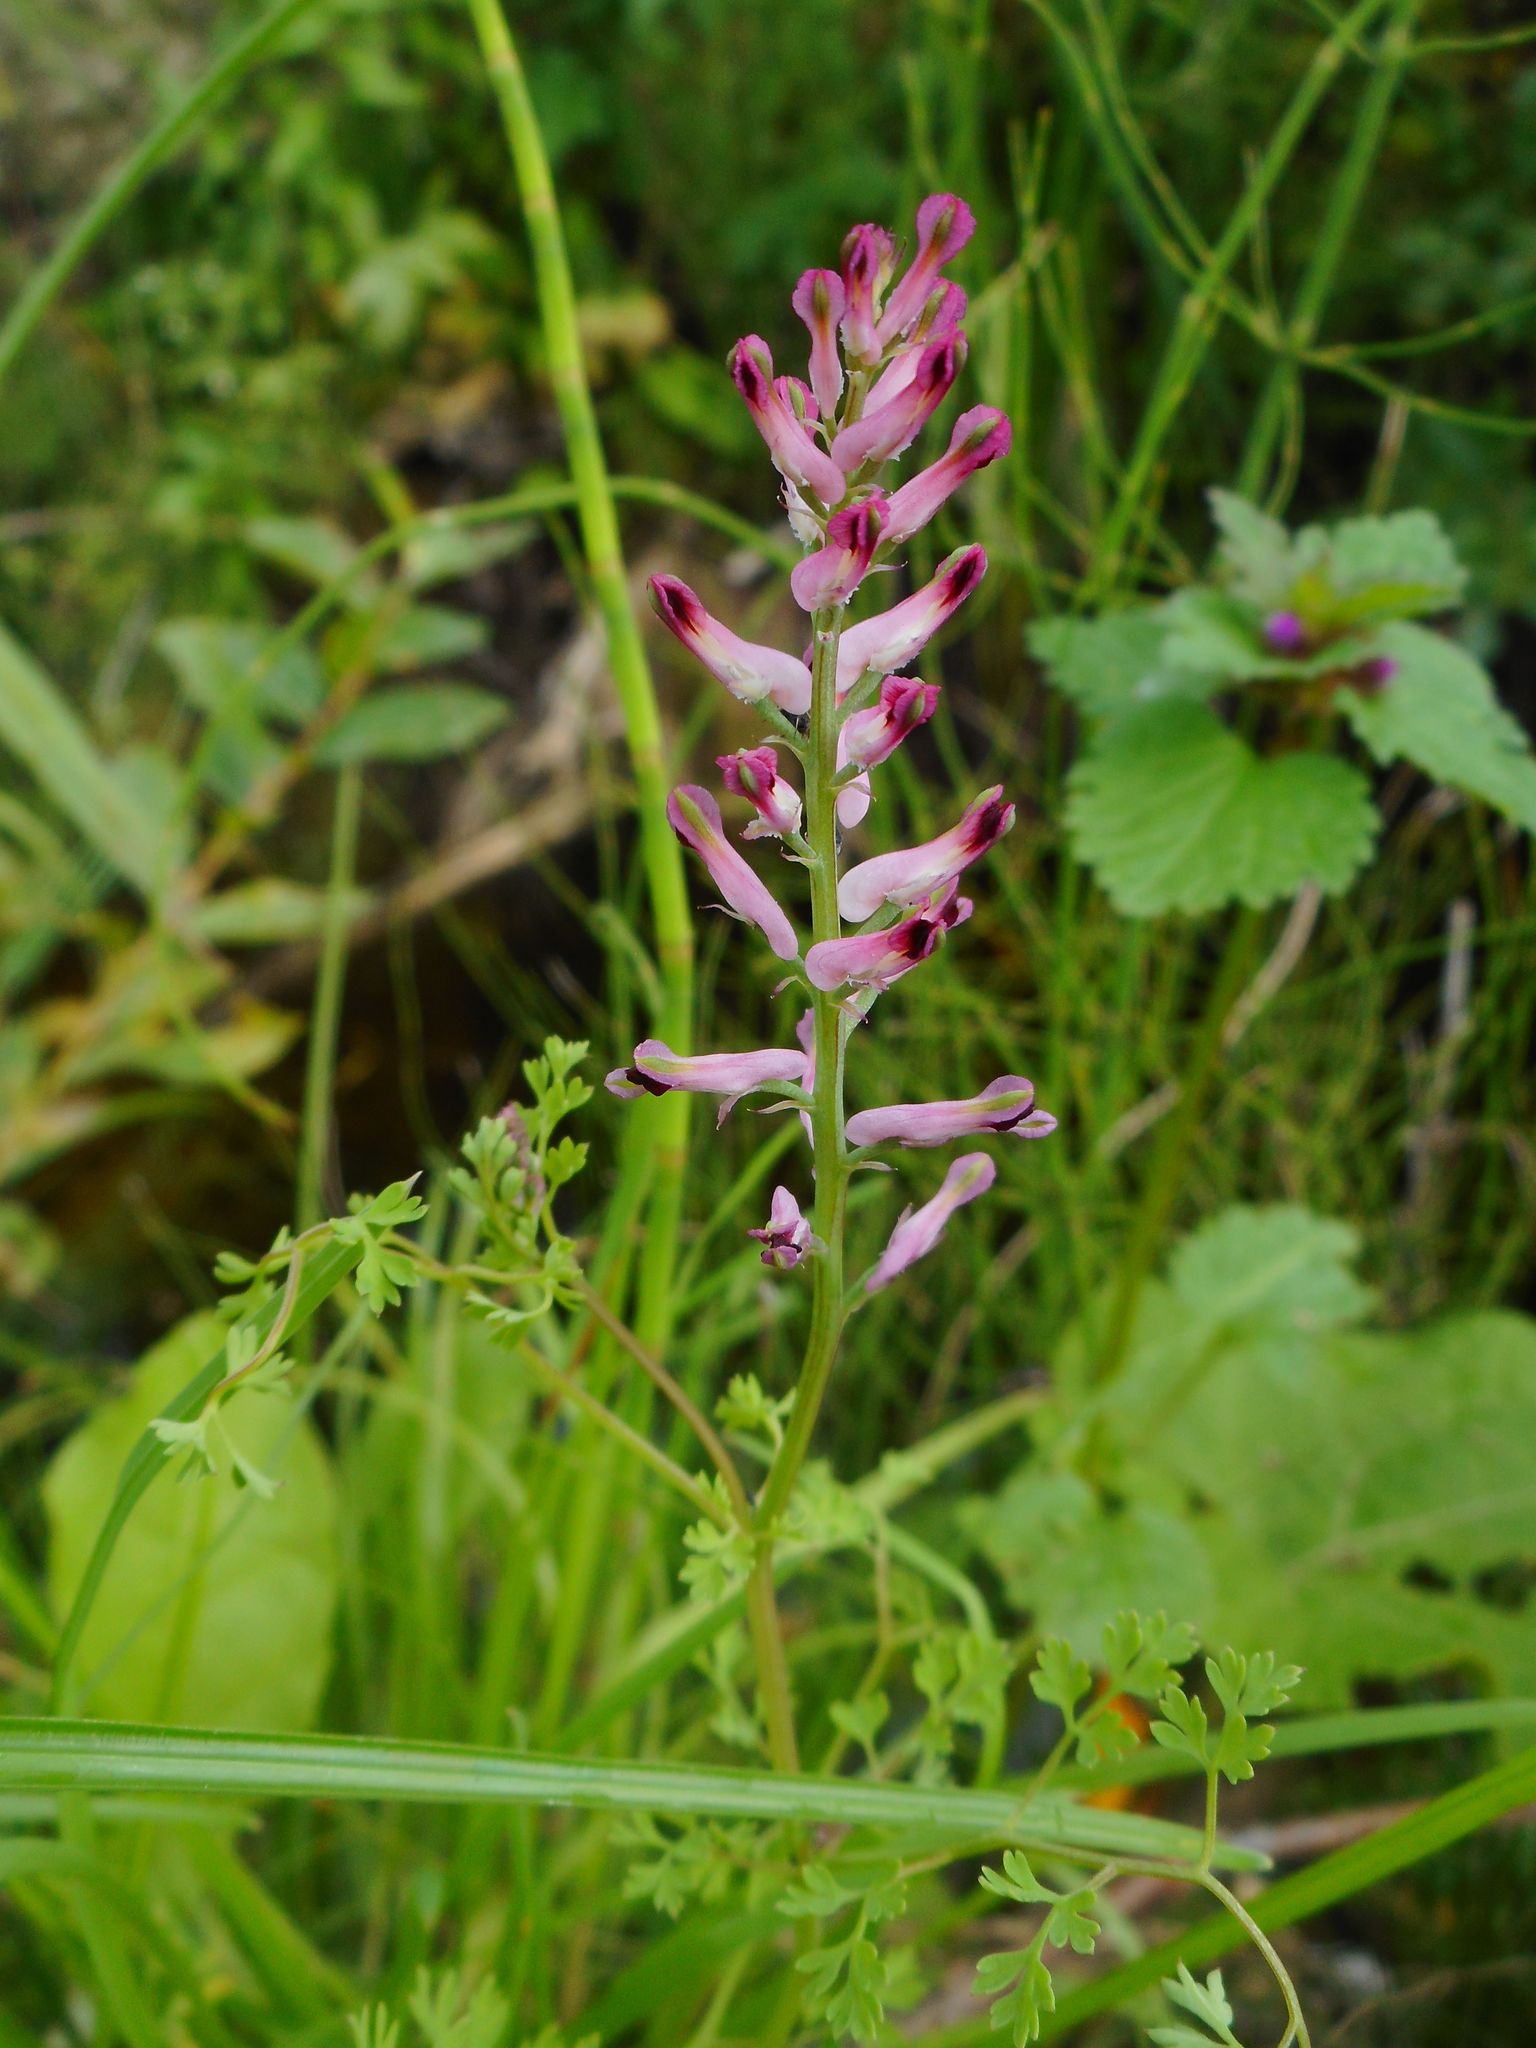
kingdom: Plantae
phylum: Tracheophyta
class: Magnoliopsida
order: Ranunculales
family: Papaveraceae
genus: Fumaria
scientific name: Fumaria officinalis
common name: Common fumitory
